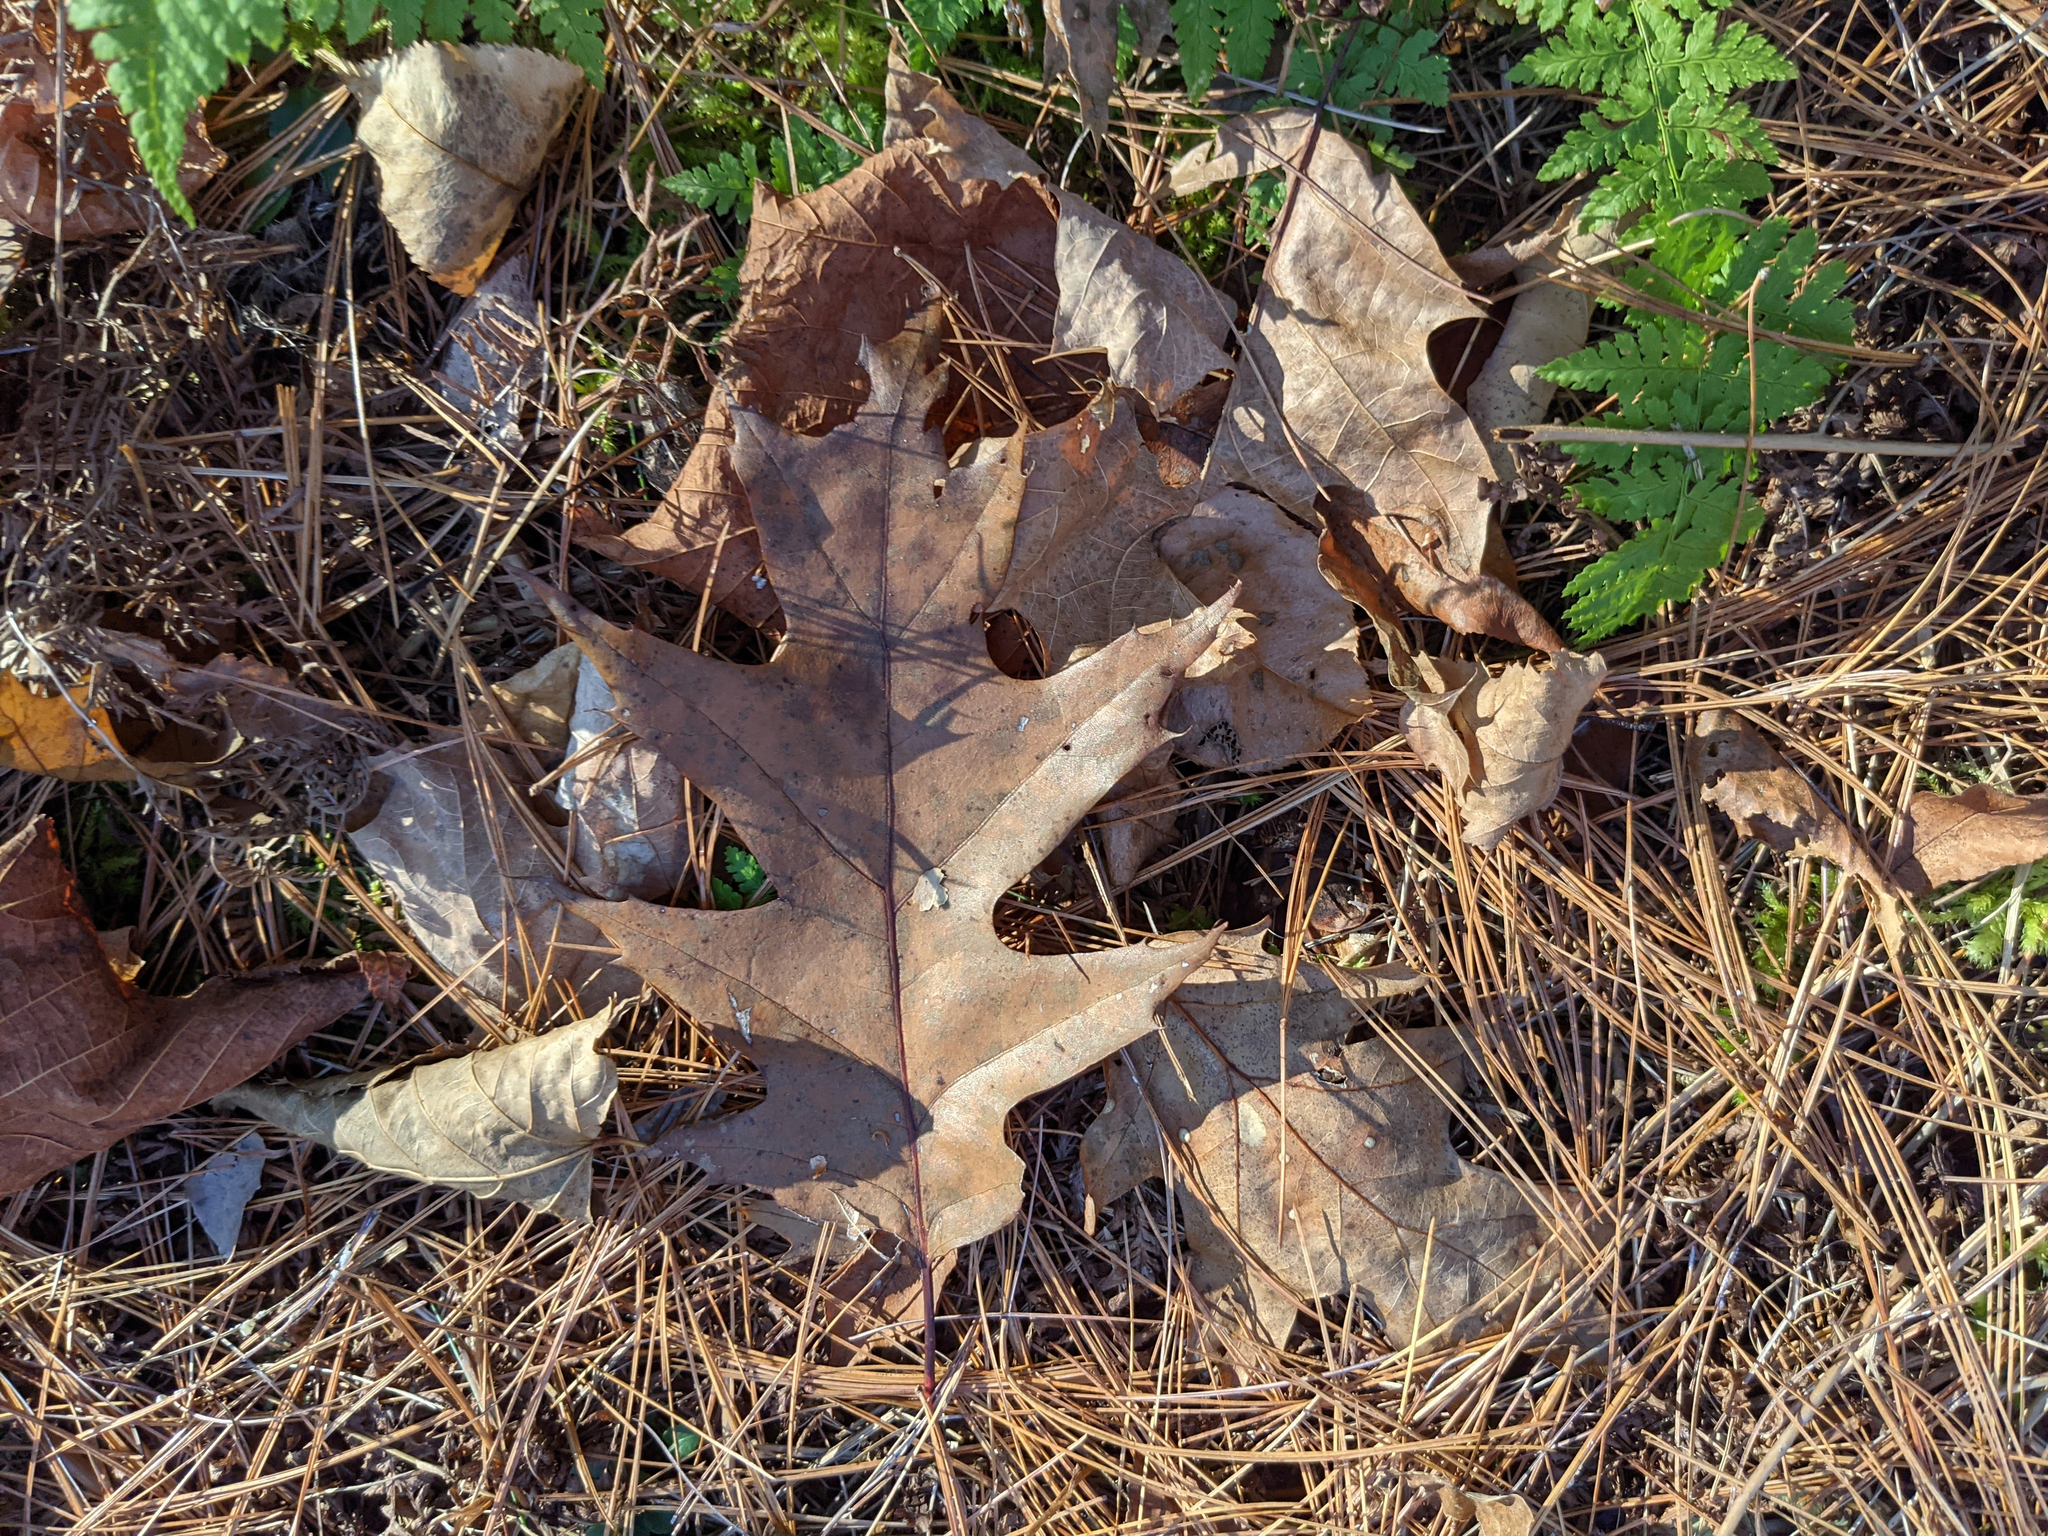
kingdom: Plantae
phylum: Tracheophyta
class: Magnoliopsida
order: Fagales
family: Fagaceae
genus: Quercus
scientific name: Quercus rubra
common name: Red oak
